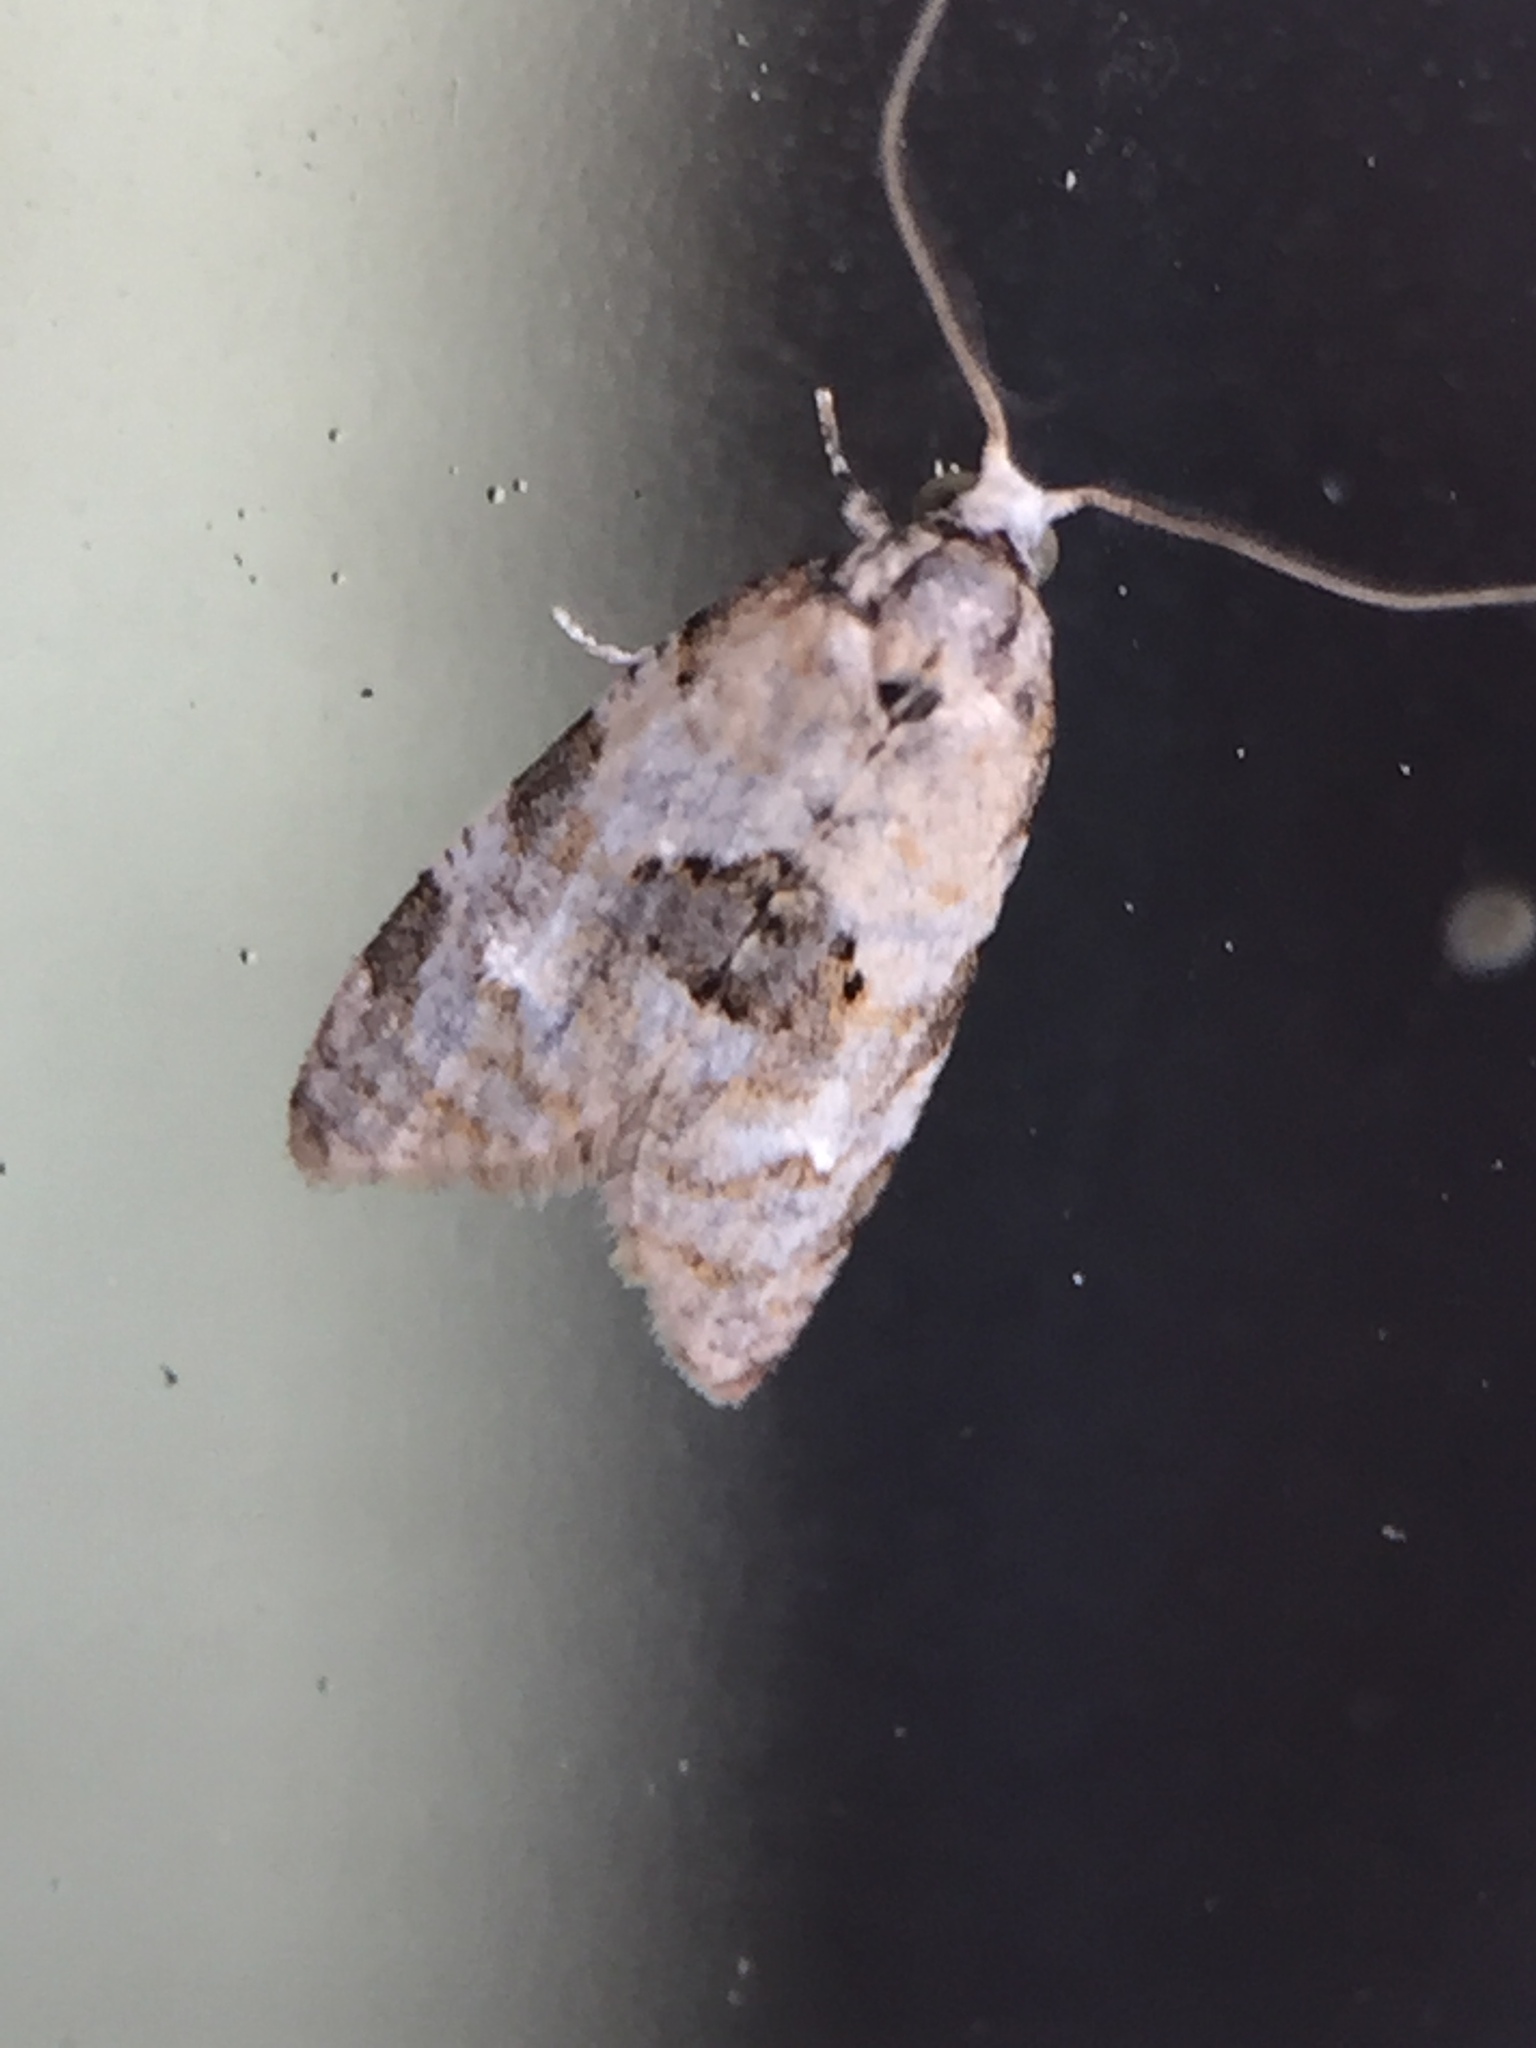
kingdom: Animalia
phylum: Arthropoda
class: Insecta
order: Lepidoptera
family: Tortricidae
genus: Dipterina
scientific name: Dipterina imbriferana
